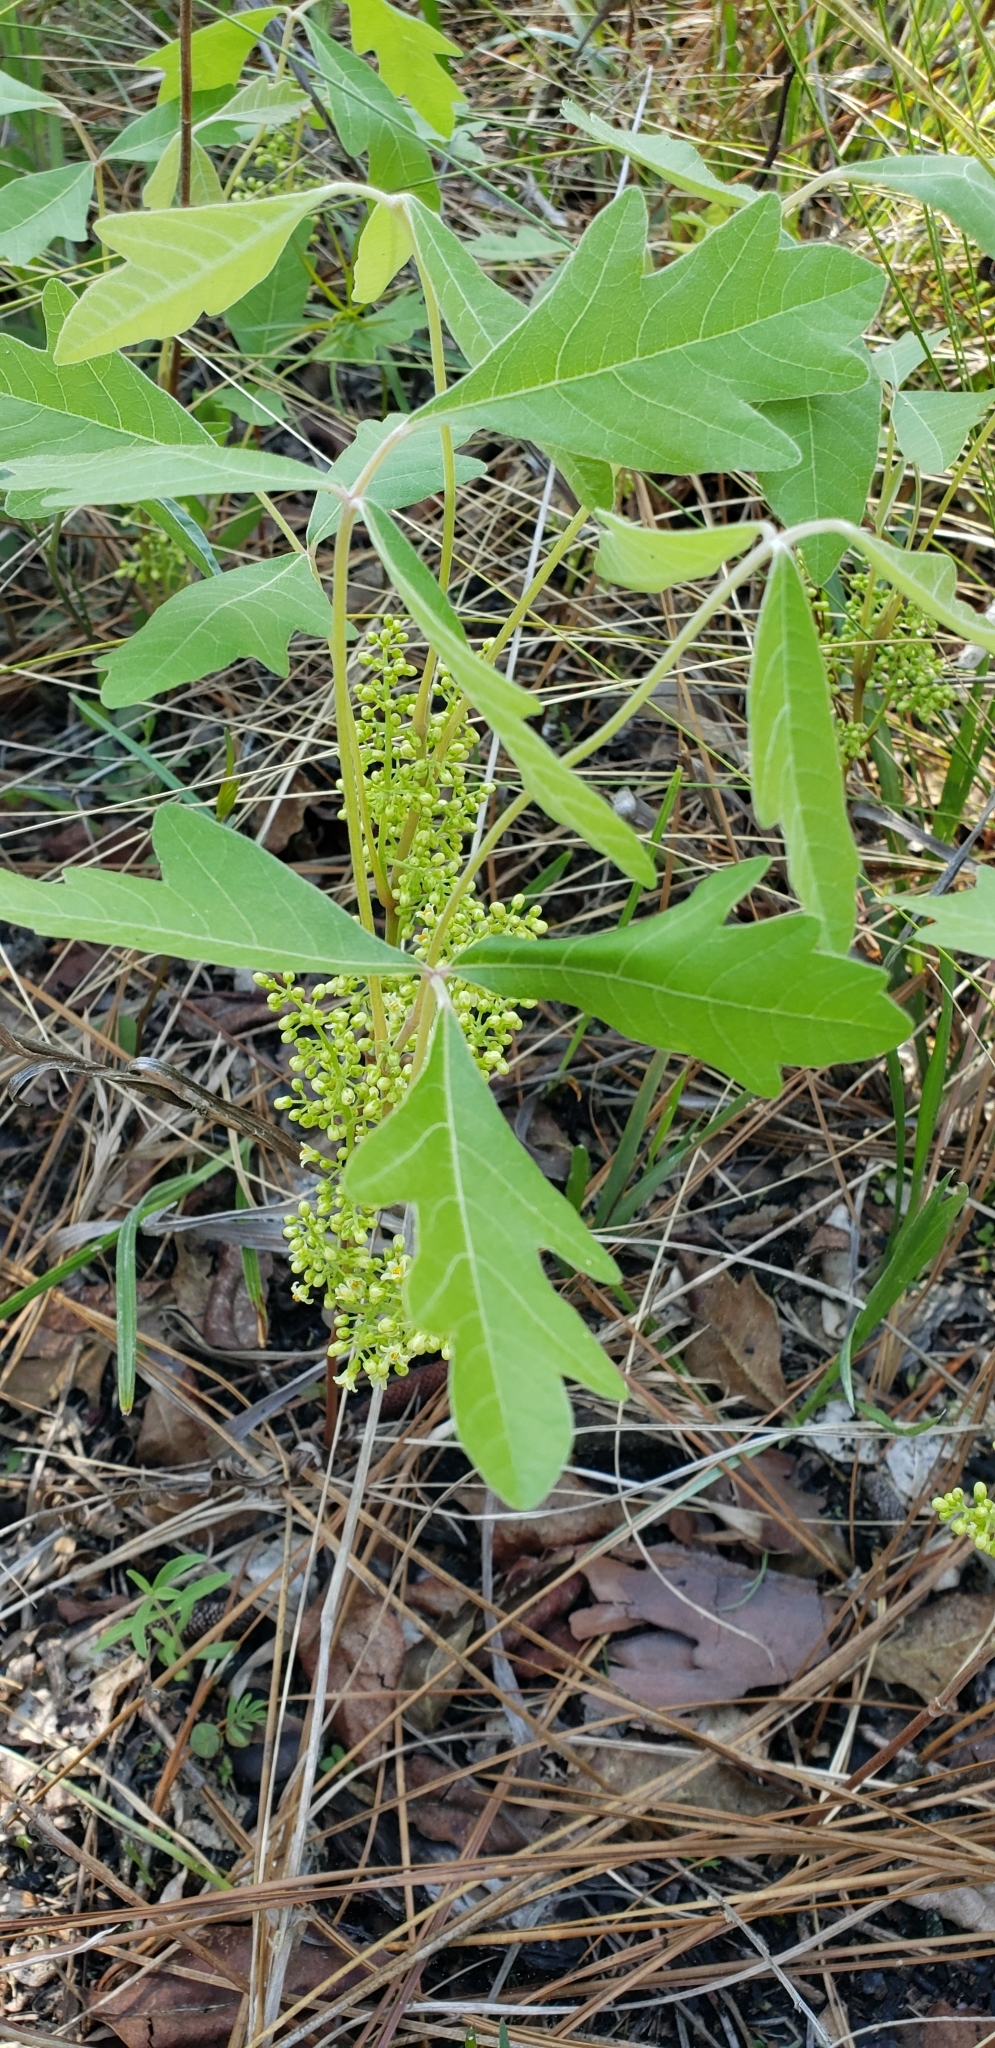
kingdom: Plantae
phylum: Tracheophyta
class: Magnoliopsida
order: Sapindales
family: Anacardiaceae
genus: Toxicodendron
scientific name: Toxicodendron pubescens
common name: Eastern poison-oak
